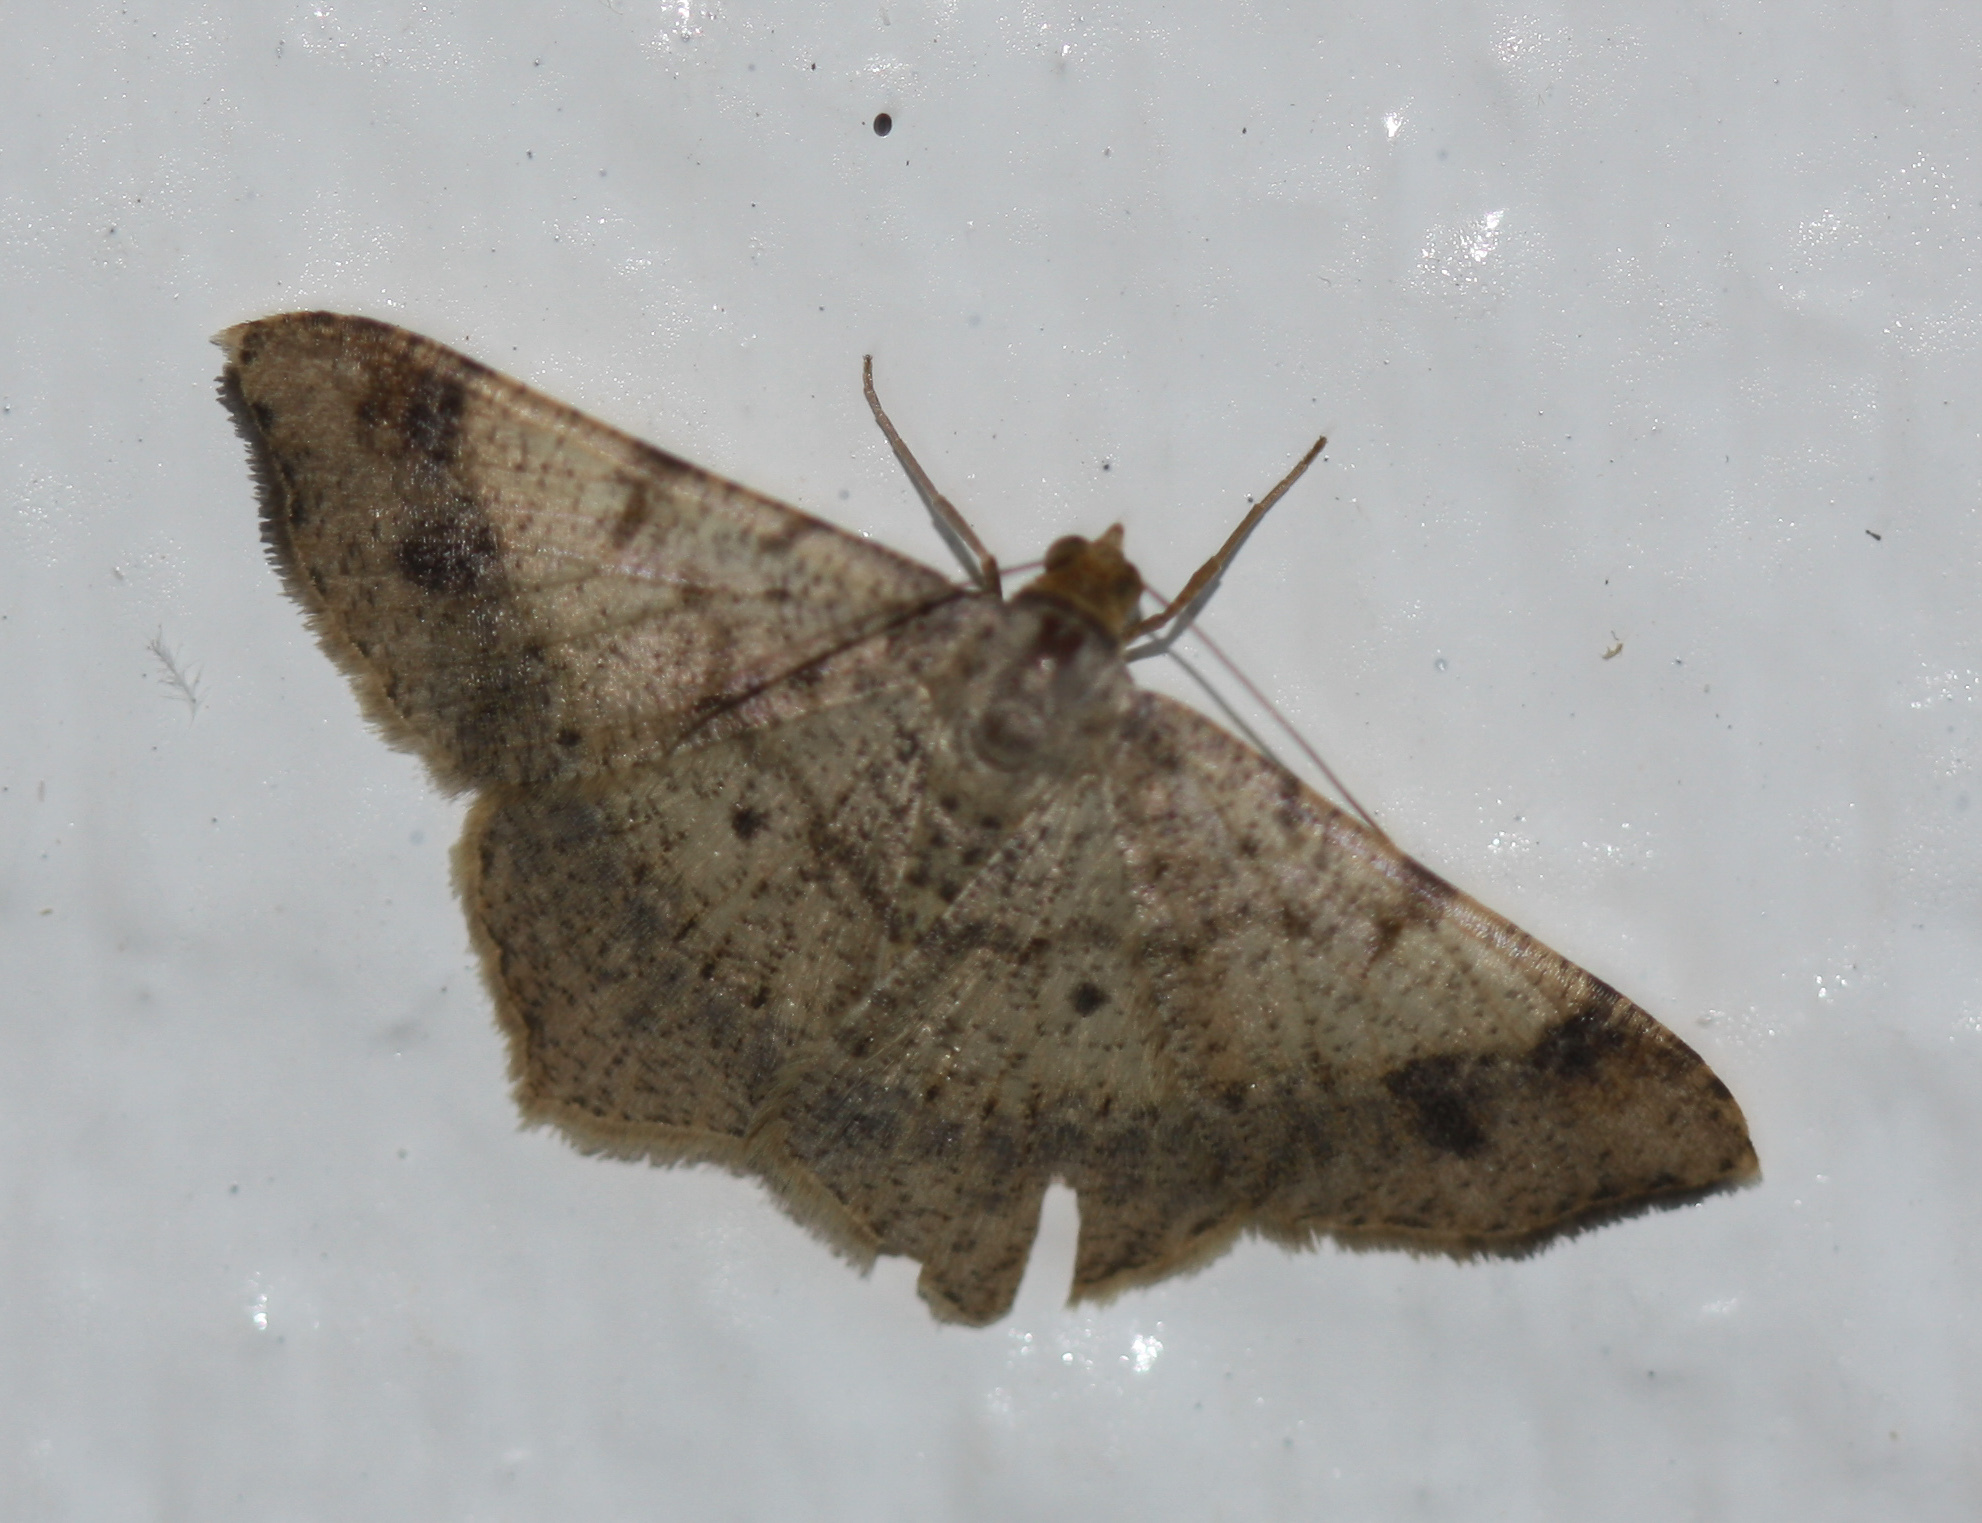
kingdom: Animalia
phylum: Arthropoda
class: Insecta
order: Lepidoptera
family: Geometridae
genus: Macaria
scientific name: Macaria abydata
